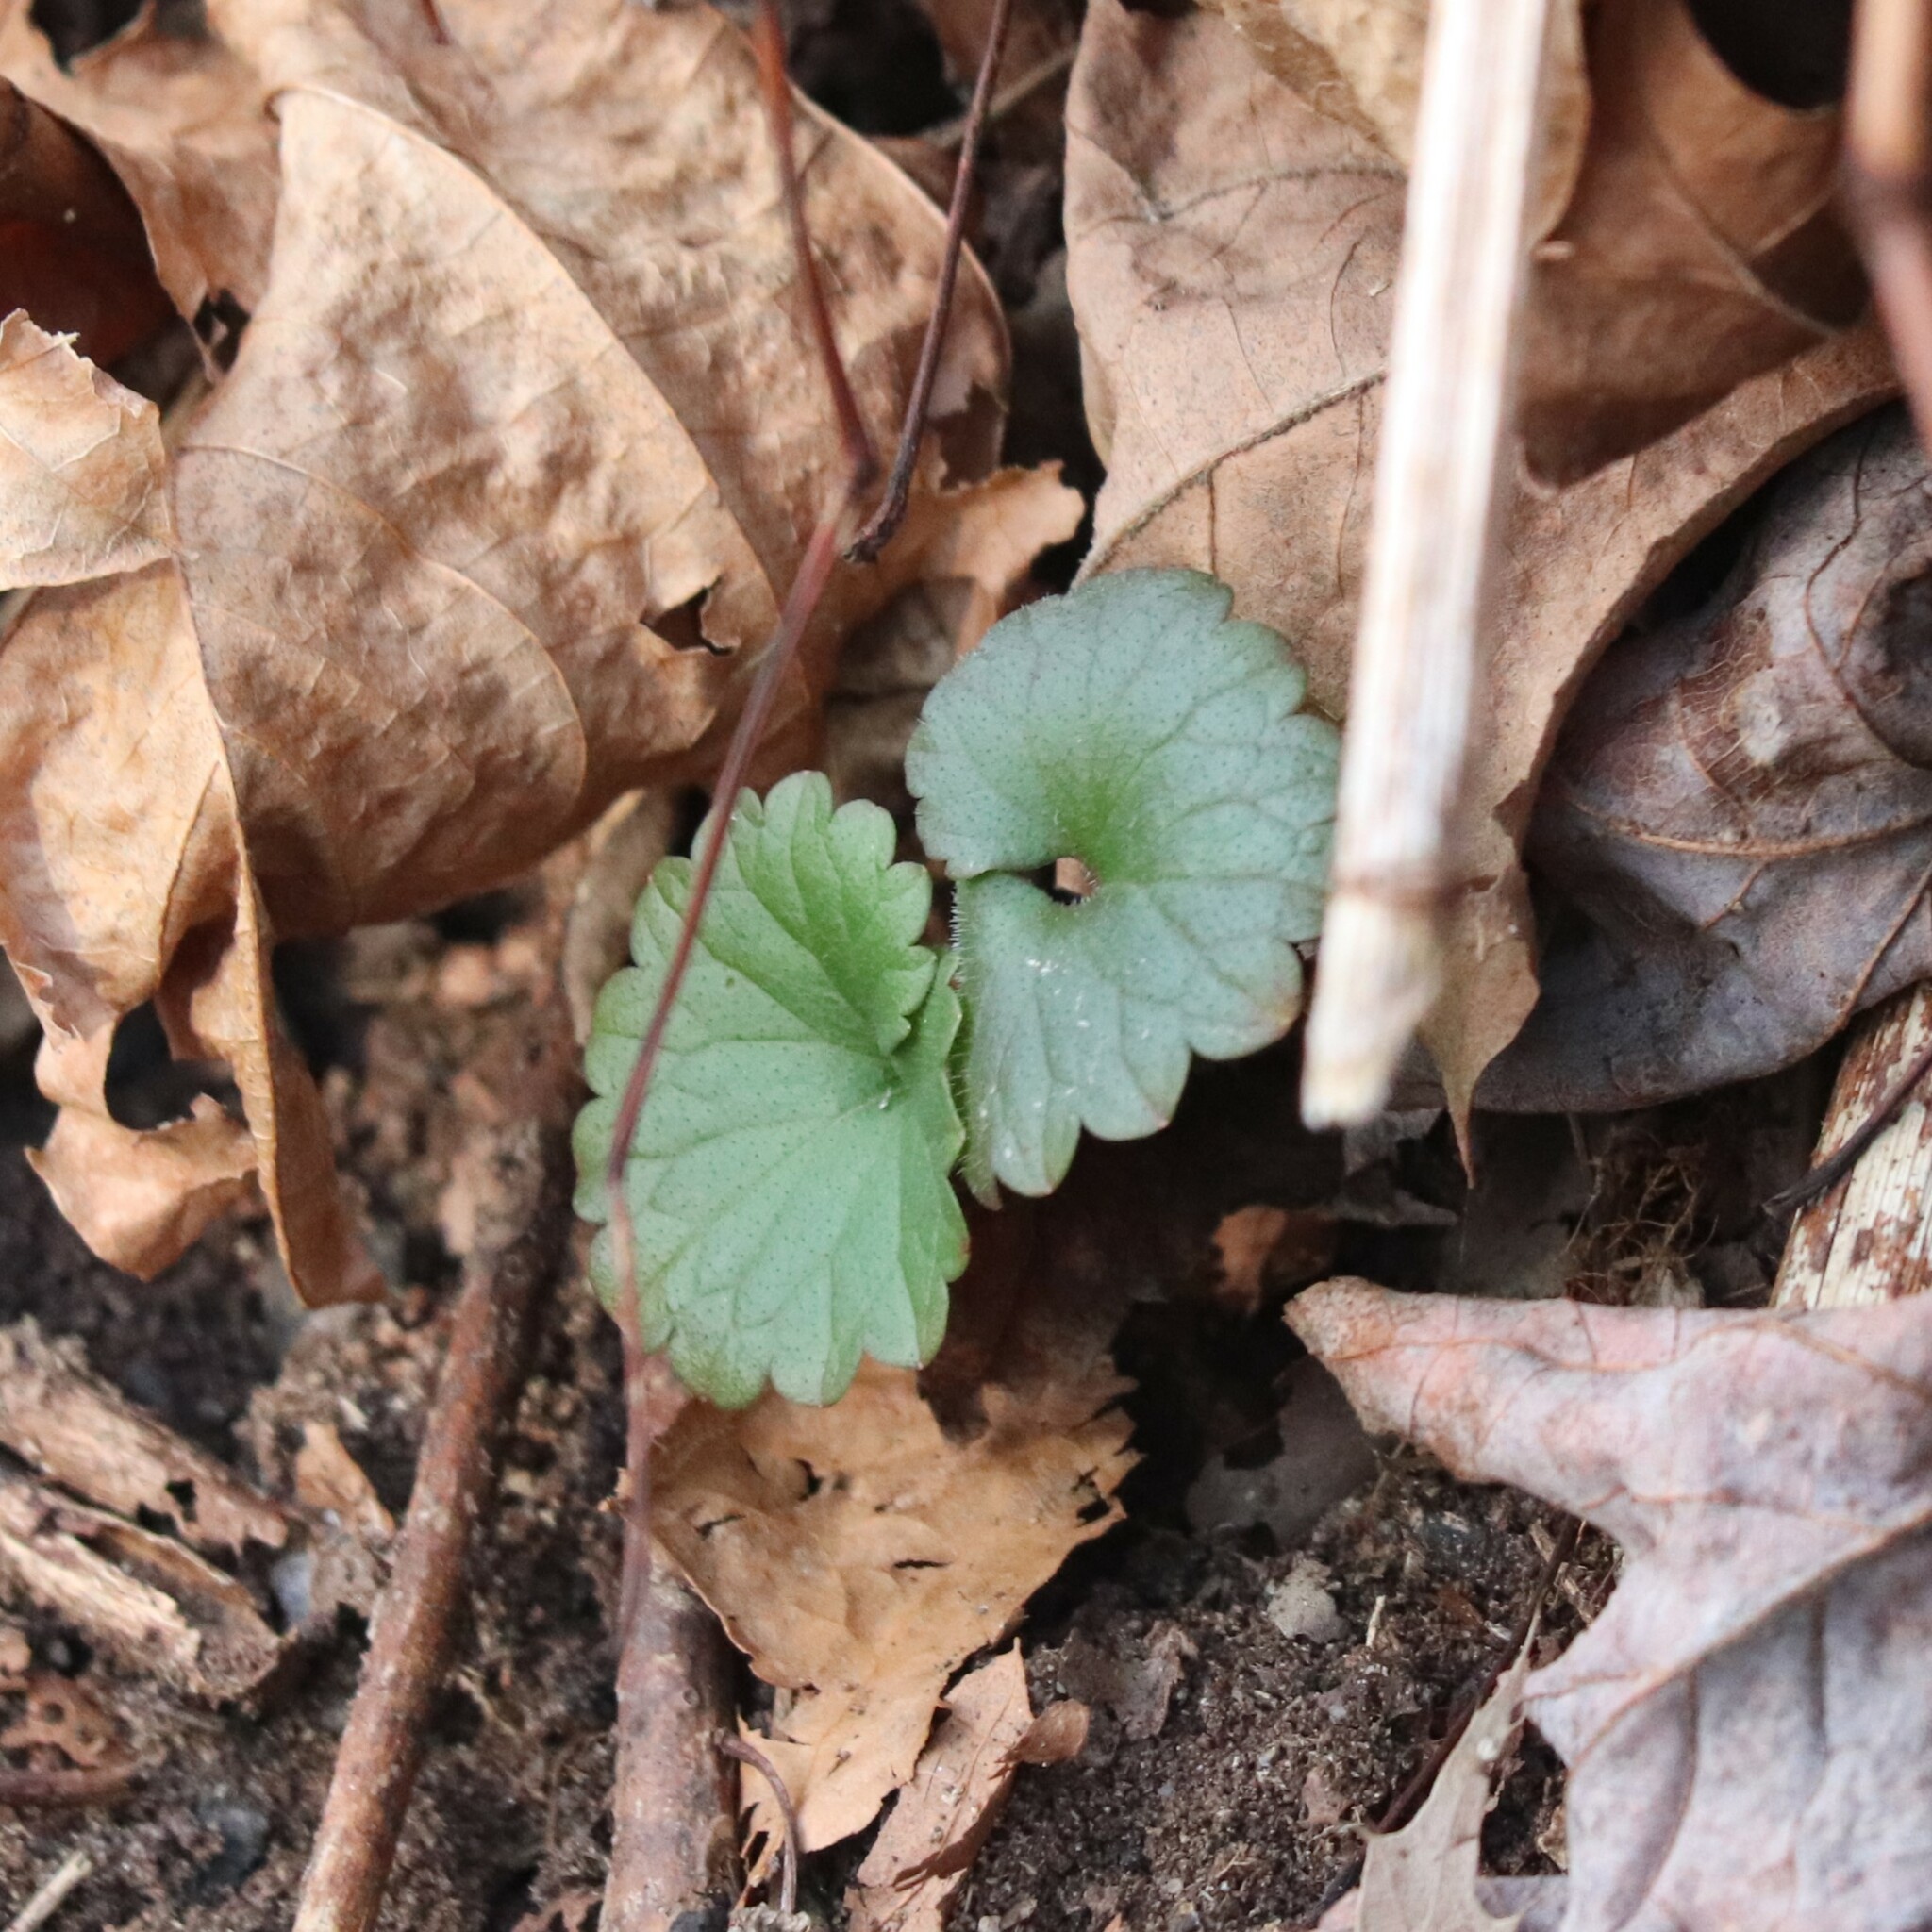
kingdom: Plantae
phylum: Tracheophyta
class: Magnoliopsida
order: Lamiales
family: Lamiaceae
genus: Glechoma
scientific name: Glechoma hederacea
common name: Ground ivy
